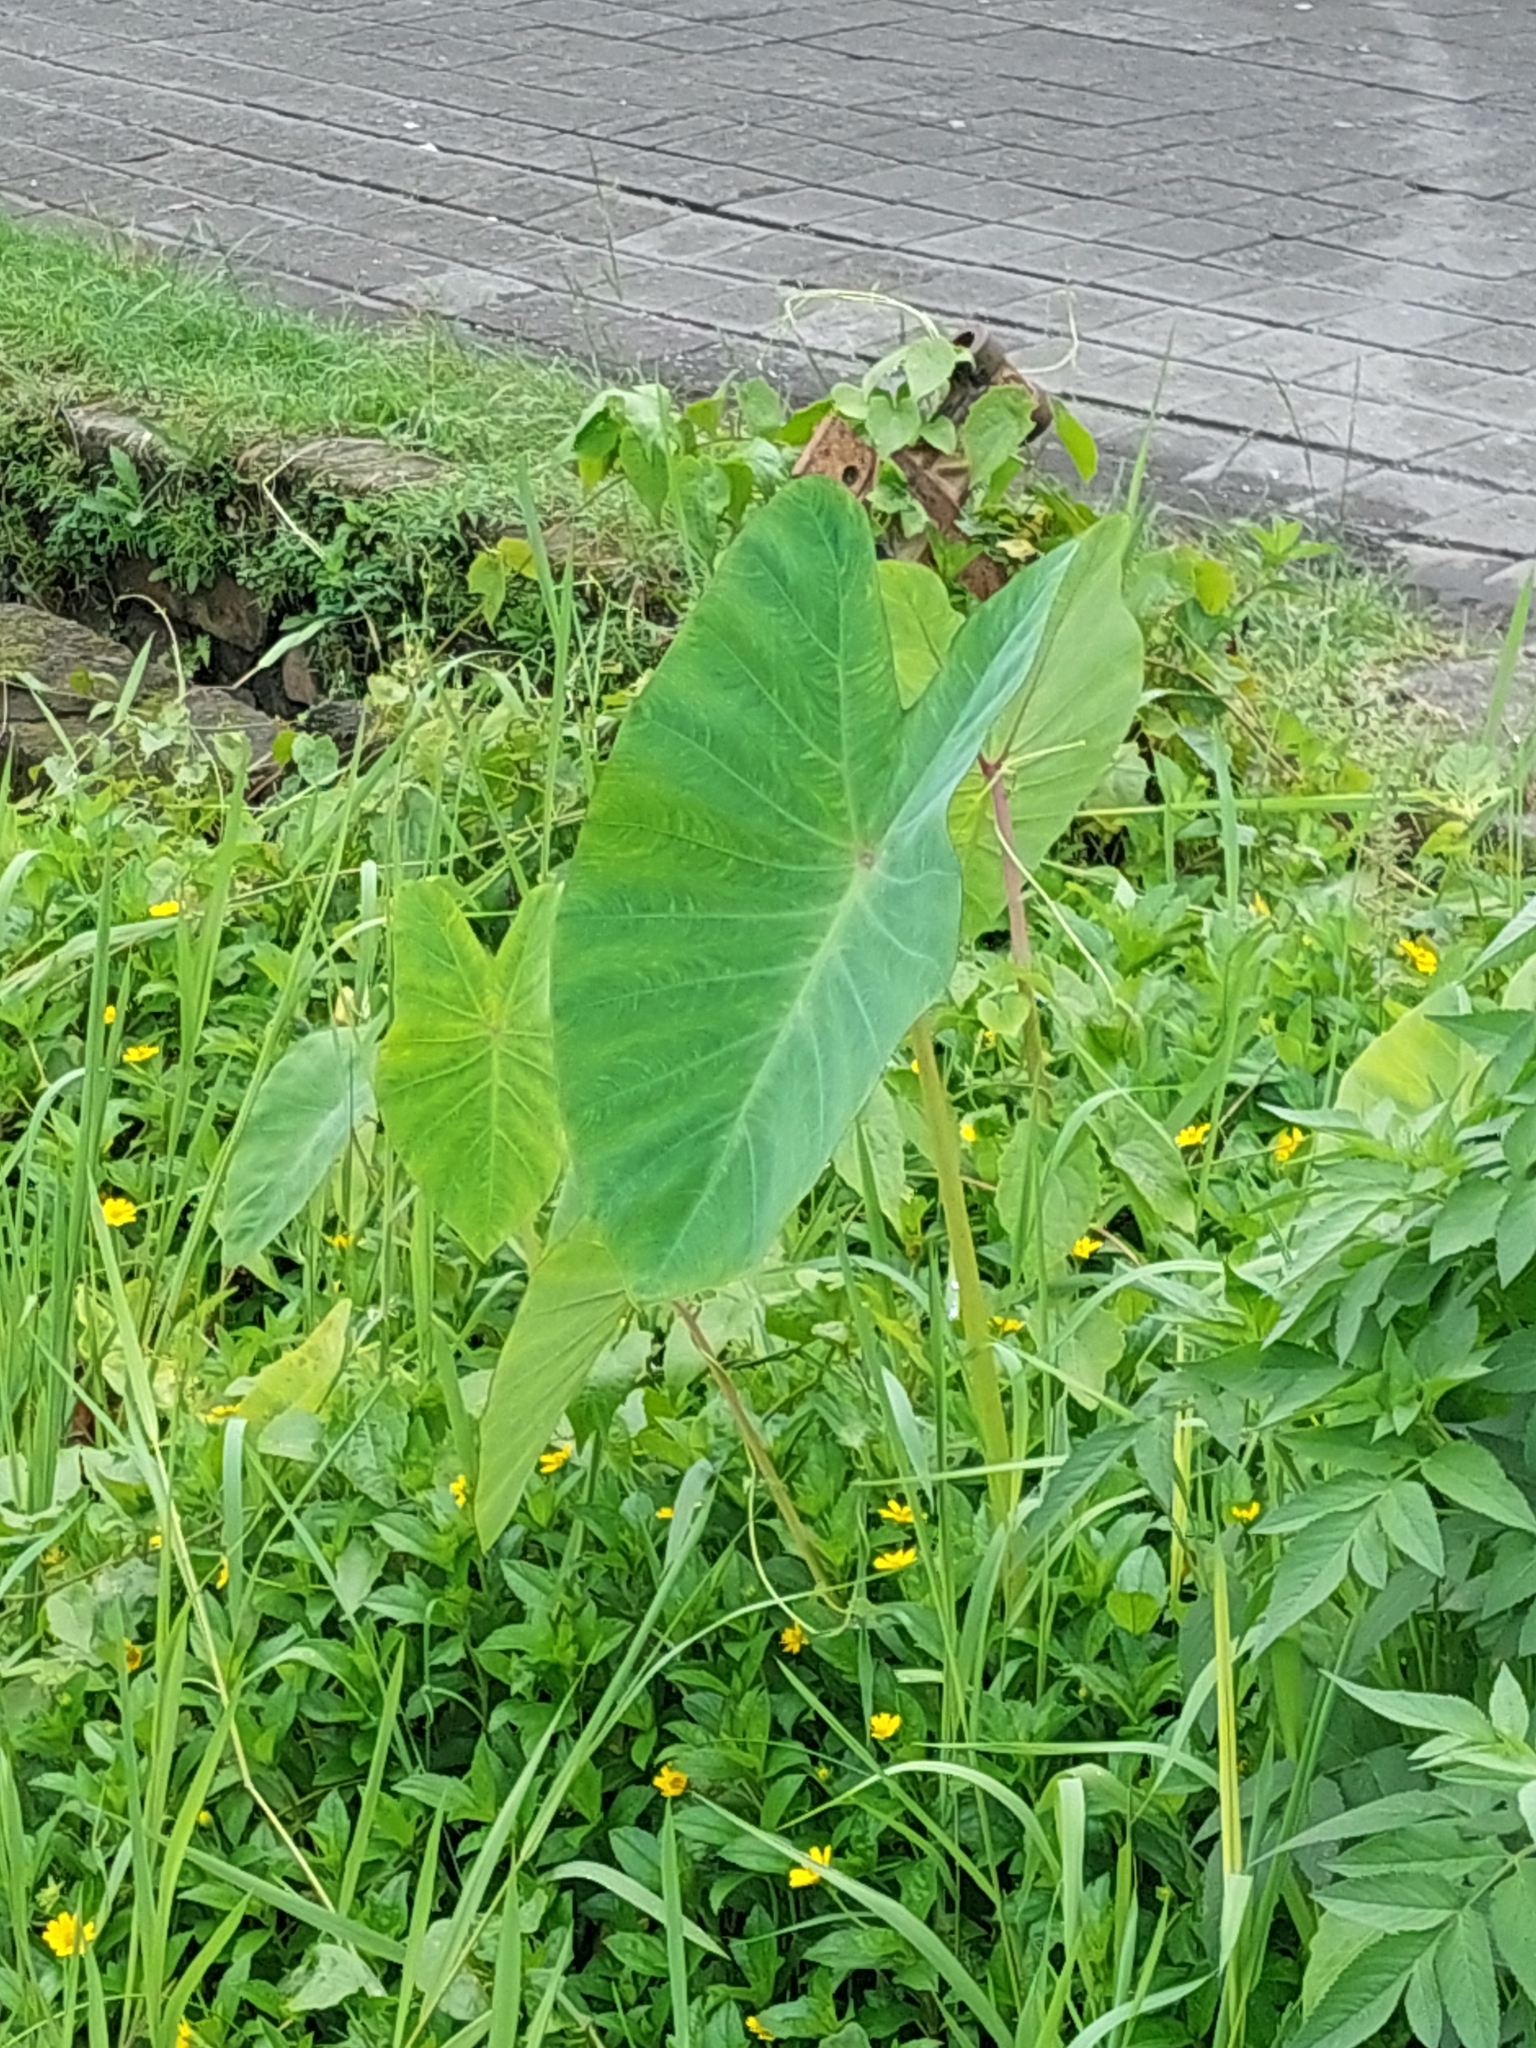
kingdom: Plantae
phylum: Tracheophyta
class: Liliopsida
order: Alismatales
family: Araceae
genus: Colocasia
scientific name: Colocasia esculenta
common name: Taro
